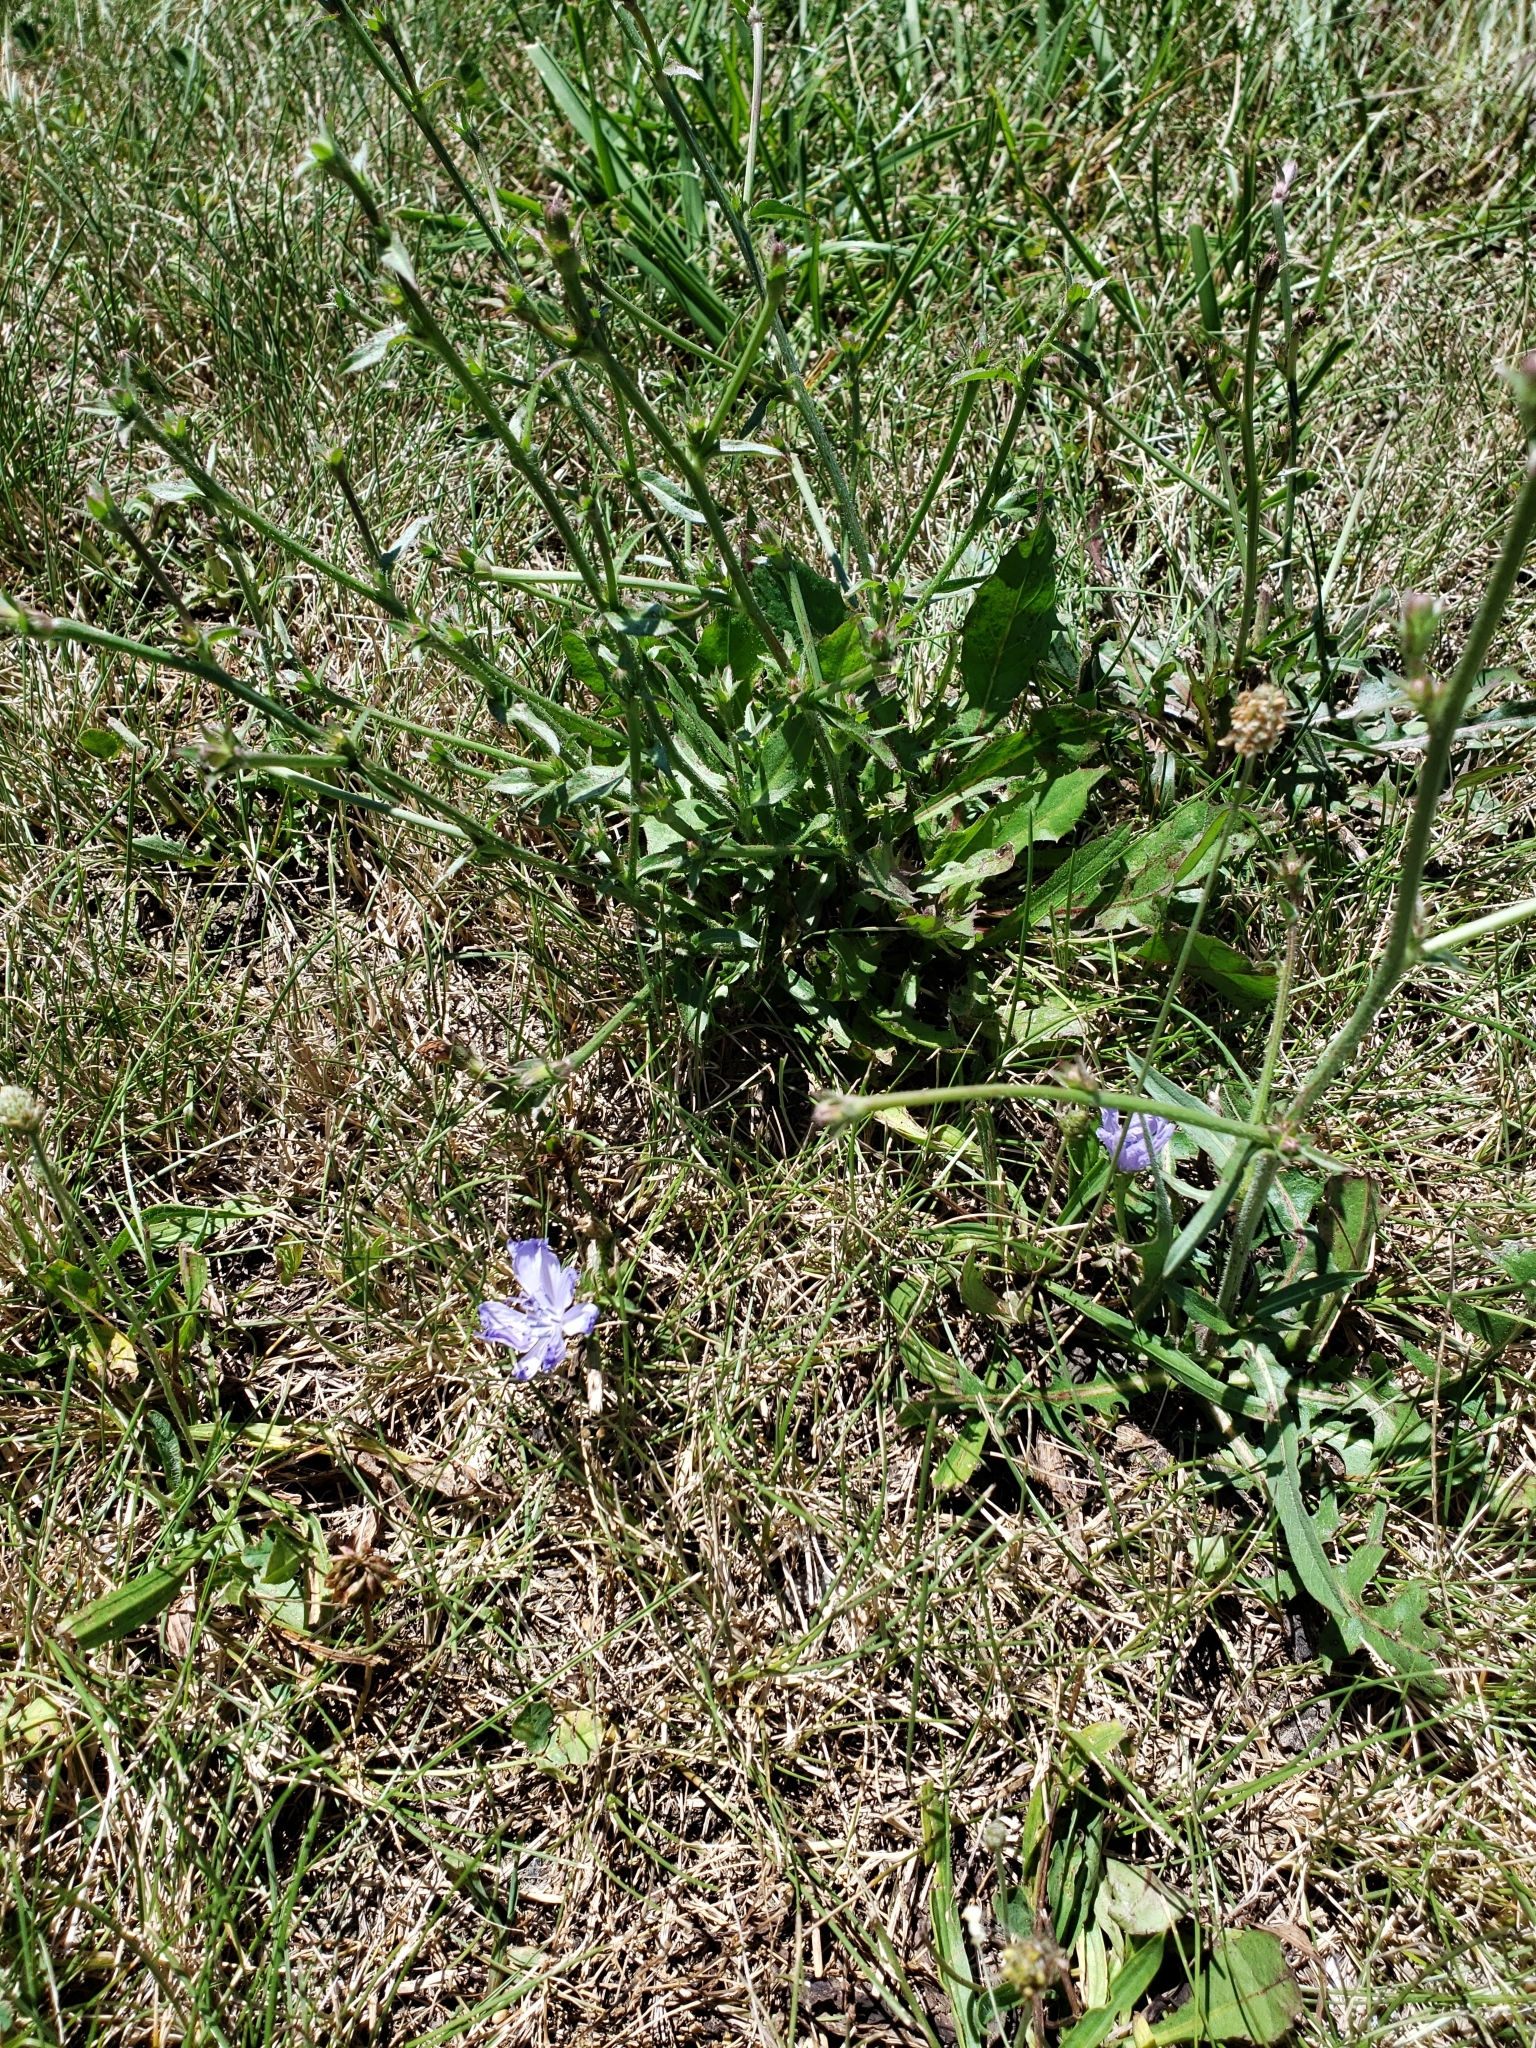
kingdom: Plantae
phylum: Tracheophyta
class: Magnoliopsida
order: Asterales
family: Asteraceae
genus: Cichorium
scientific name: Cichorium intybus
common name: Chicory
